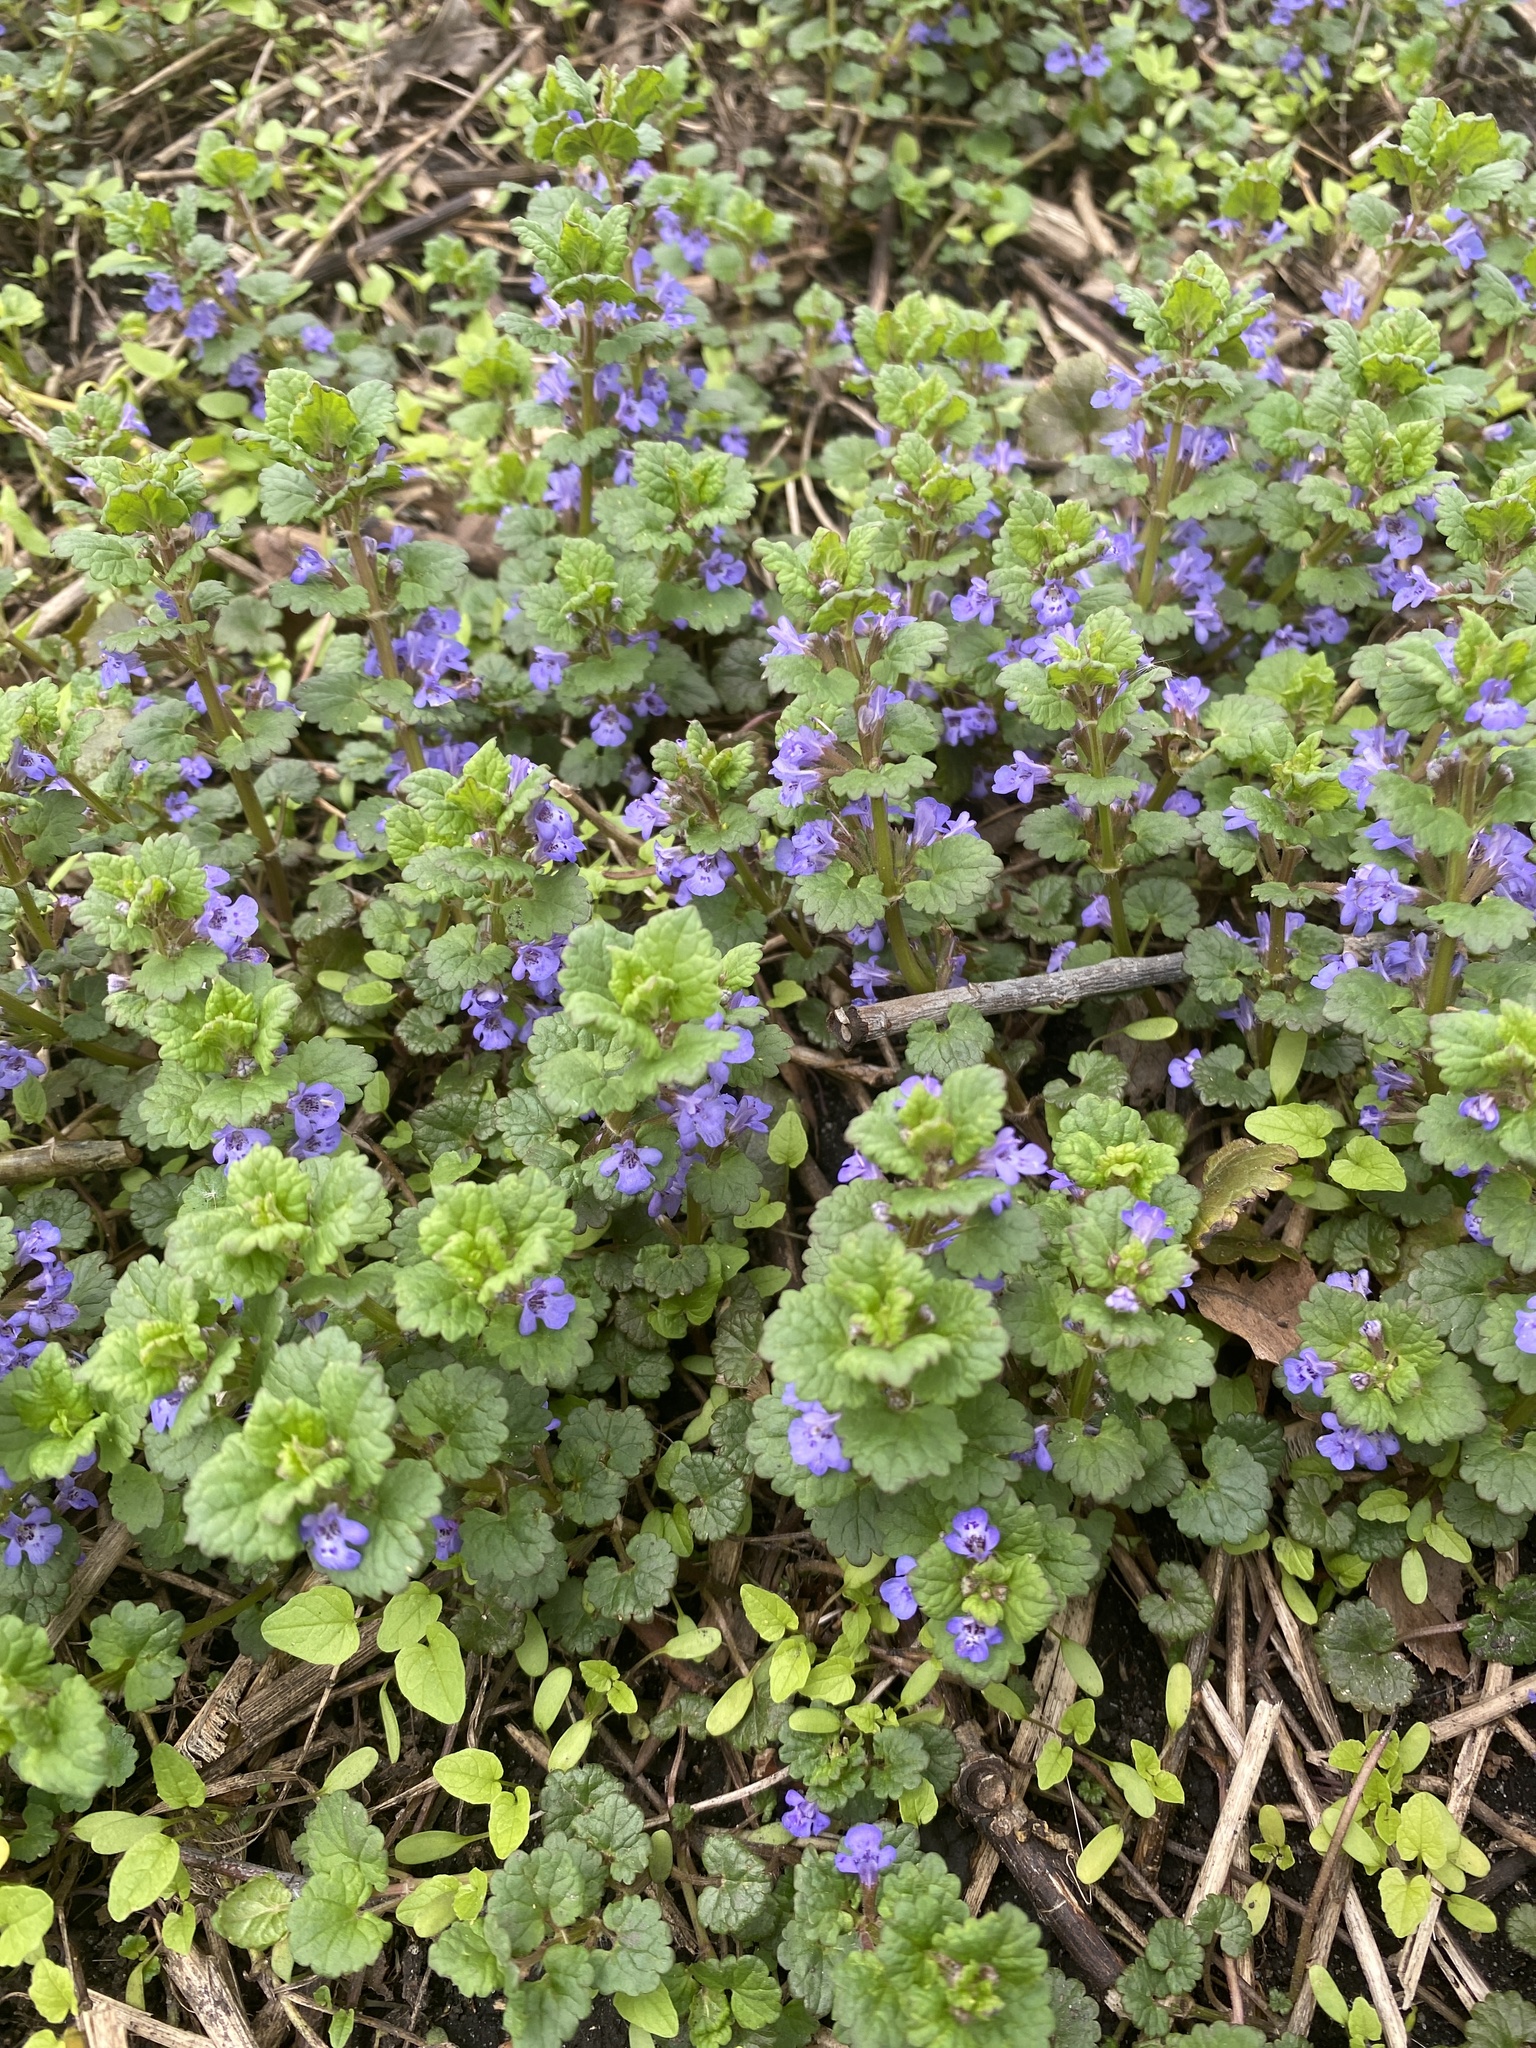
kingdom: Plantae
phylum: Tracheophyta
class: Magnoliopsida
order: Lamiales
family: Lamiaceae
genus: Glechoma
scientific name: Glechoma hederacea
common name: Ground ivy
